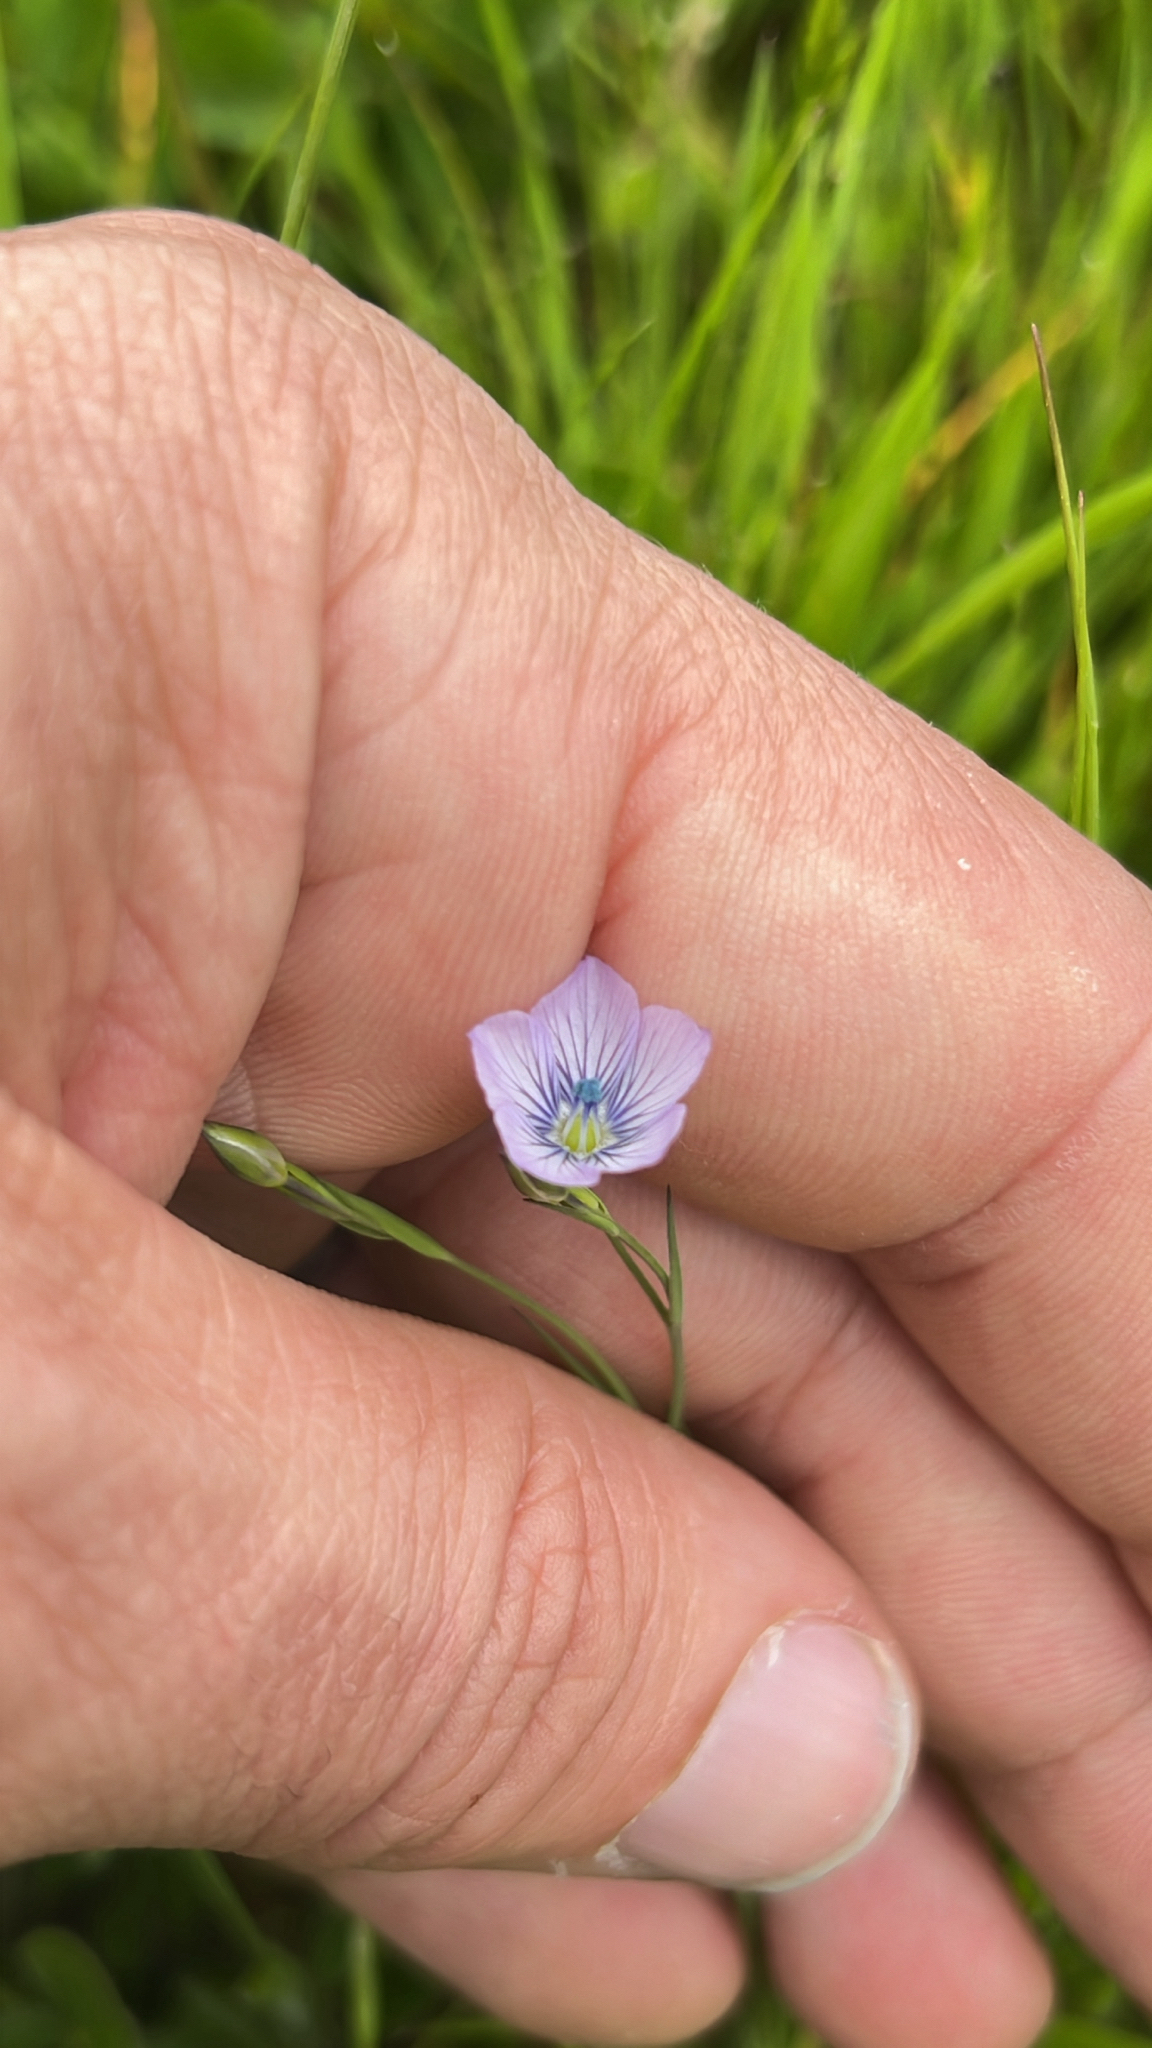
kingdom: Plantae
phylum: Tracheophyta
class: Magnoliopsida
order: Malpighiales
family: Linaceae
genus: Linum
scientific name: Linum bienne
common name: Pale flax
